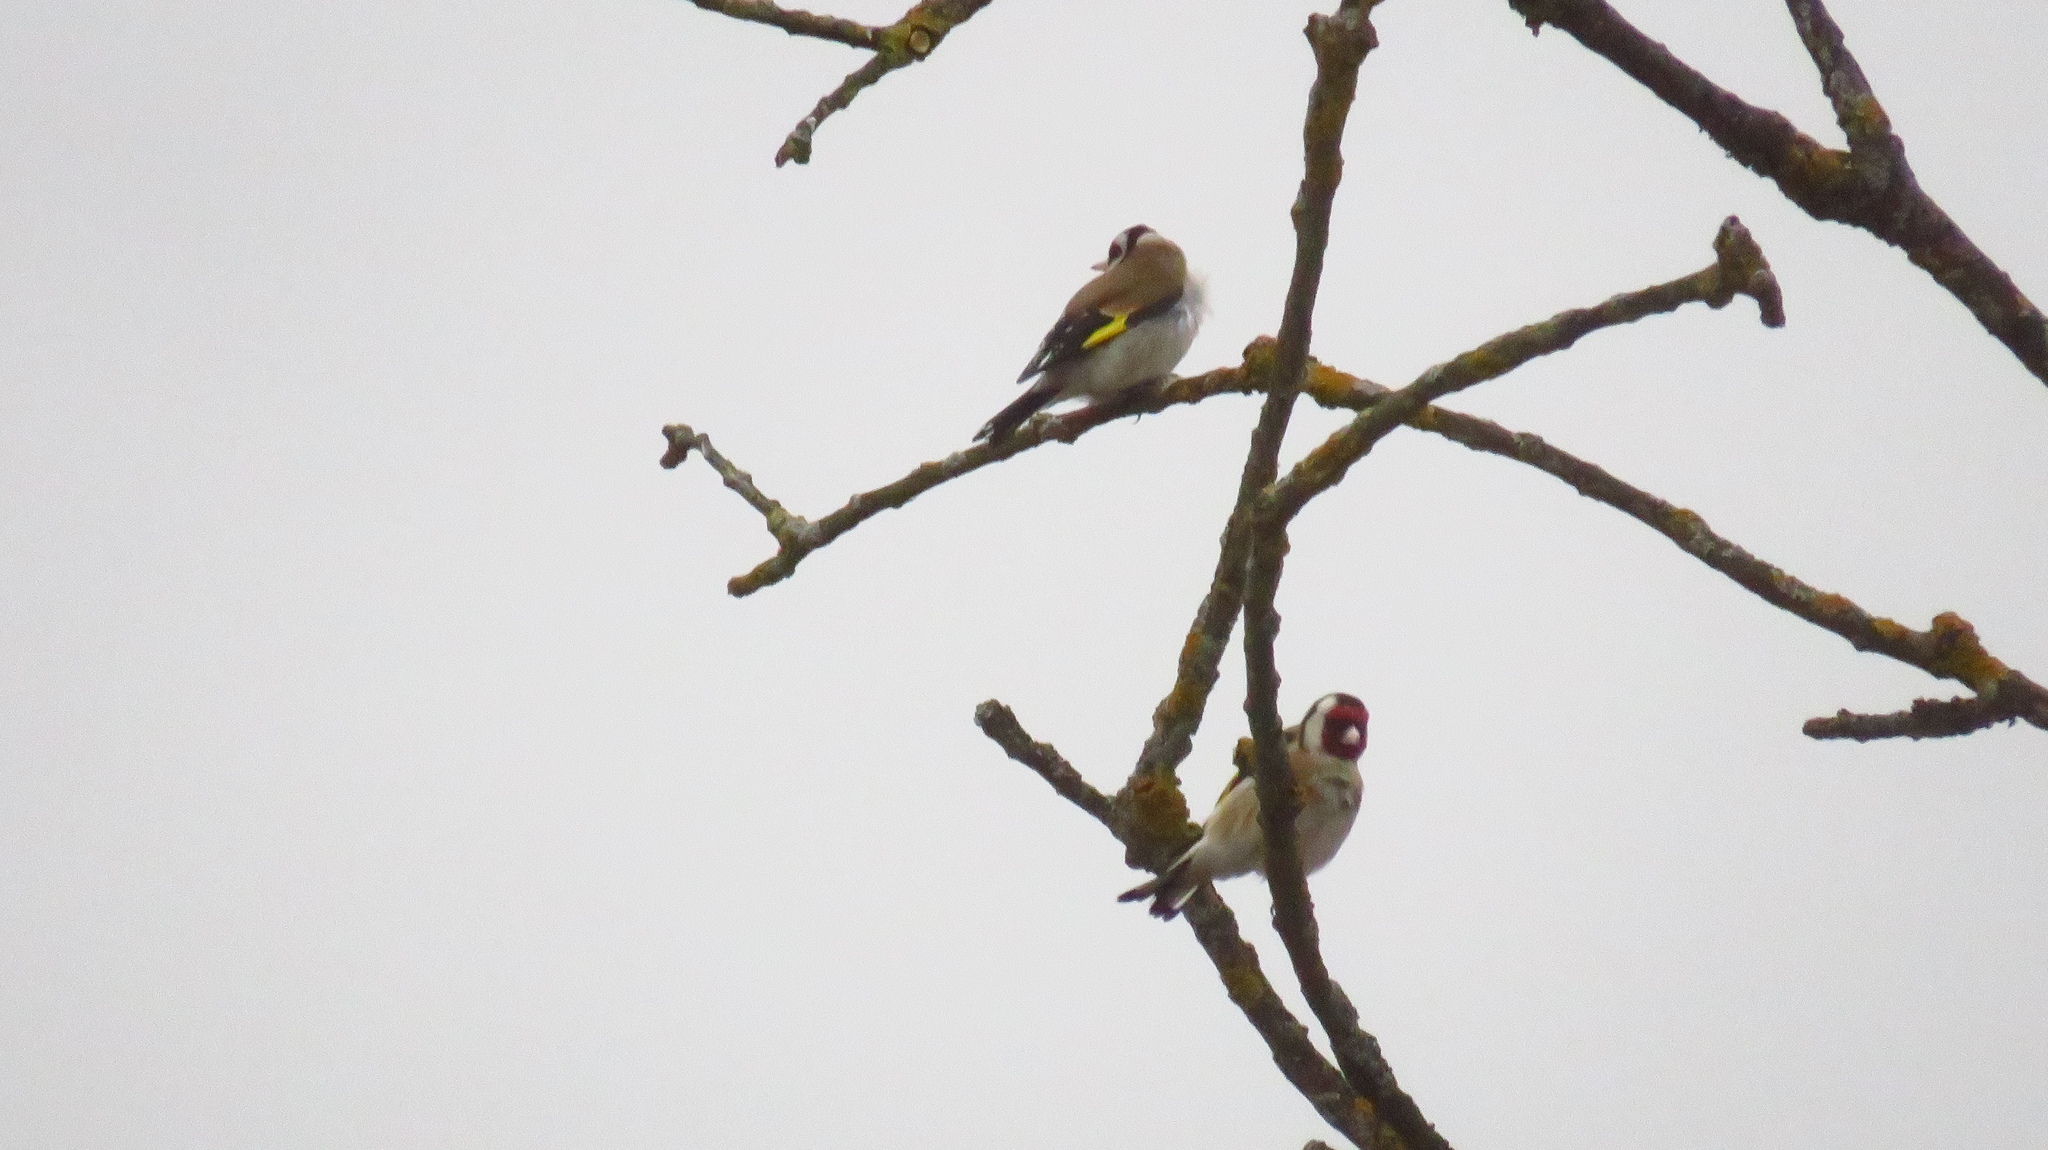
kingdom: Animalia
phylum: Chordata
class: Aves
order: Passeriformes
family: Fringillidae
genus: Carduelis
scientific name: Carduelis carduelis
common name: European goldfinch
